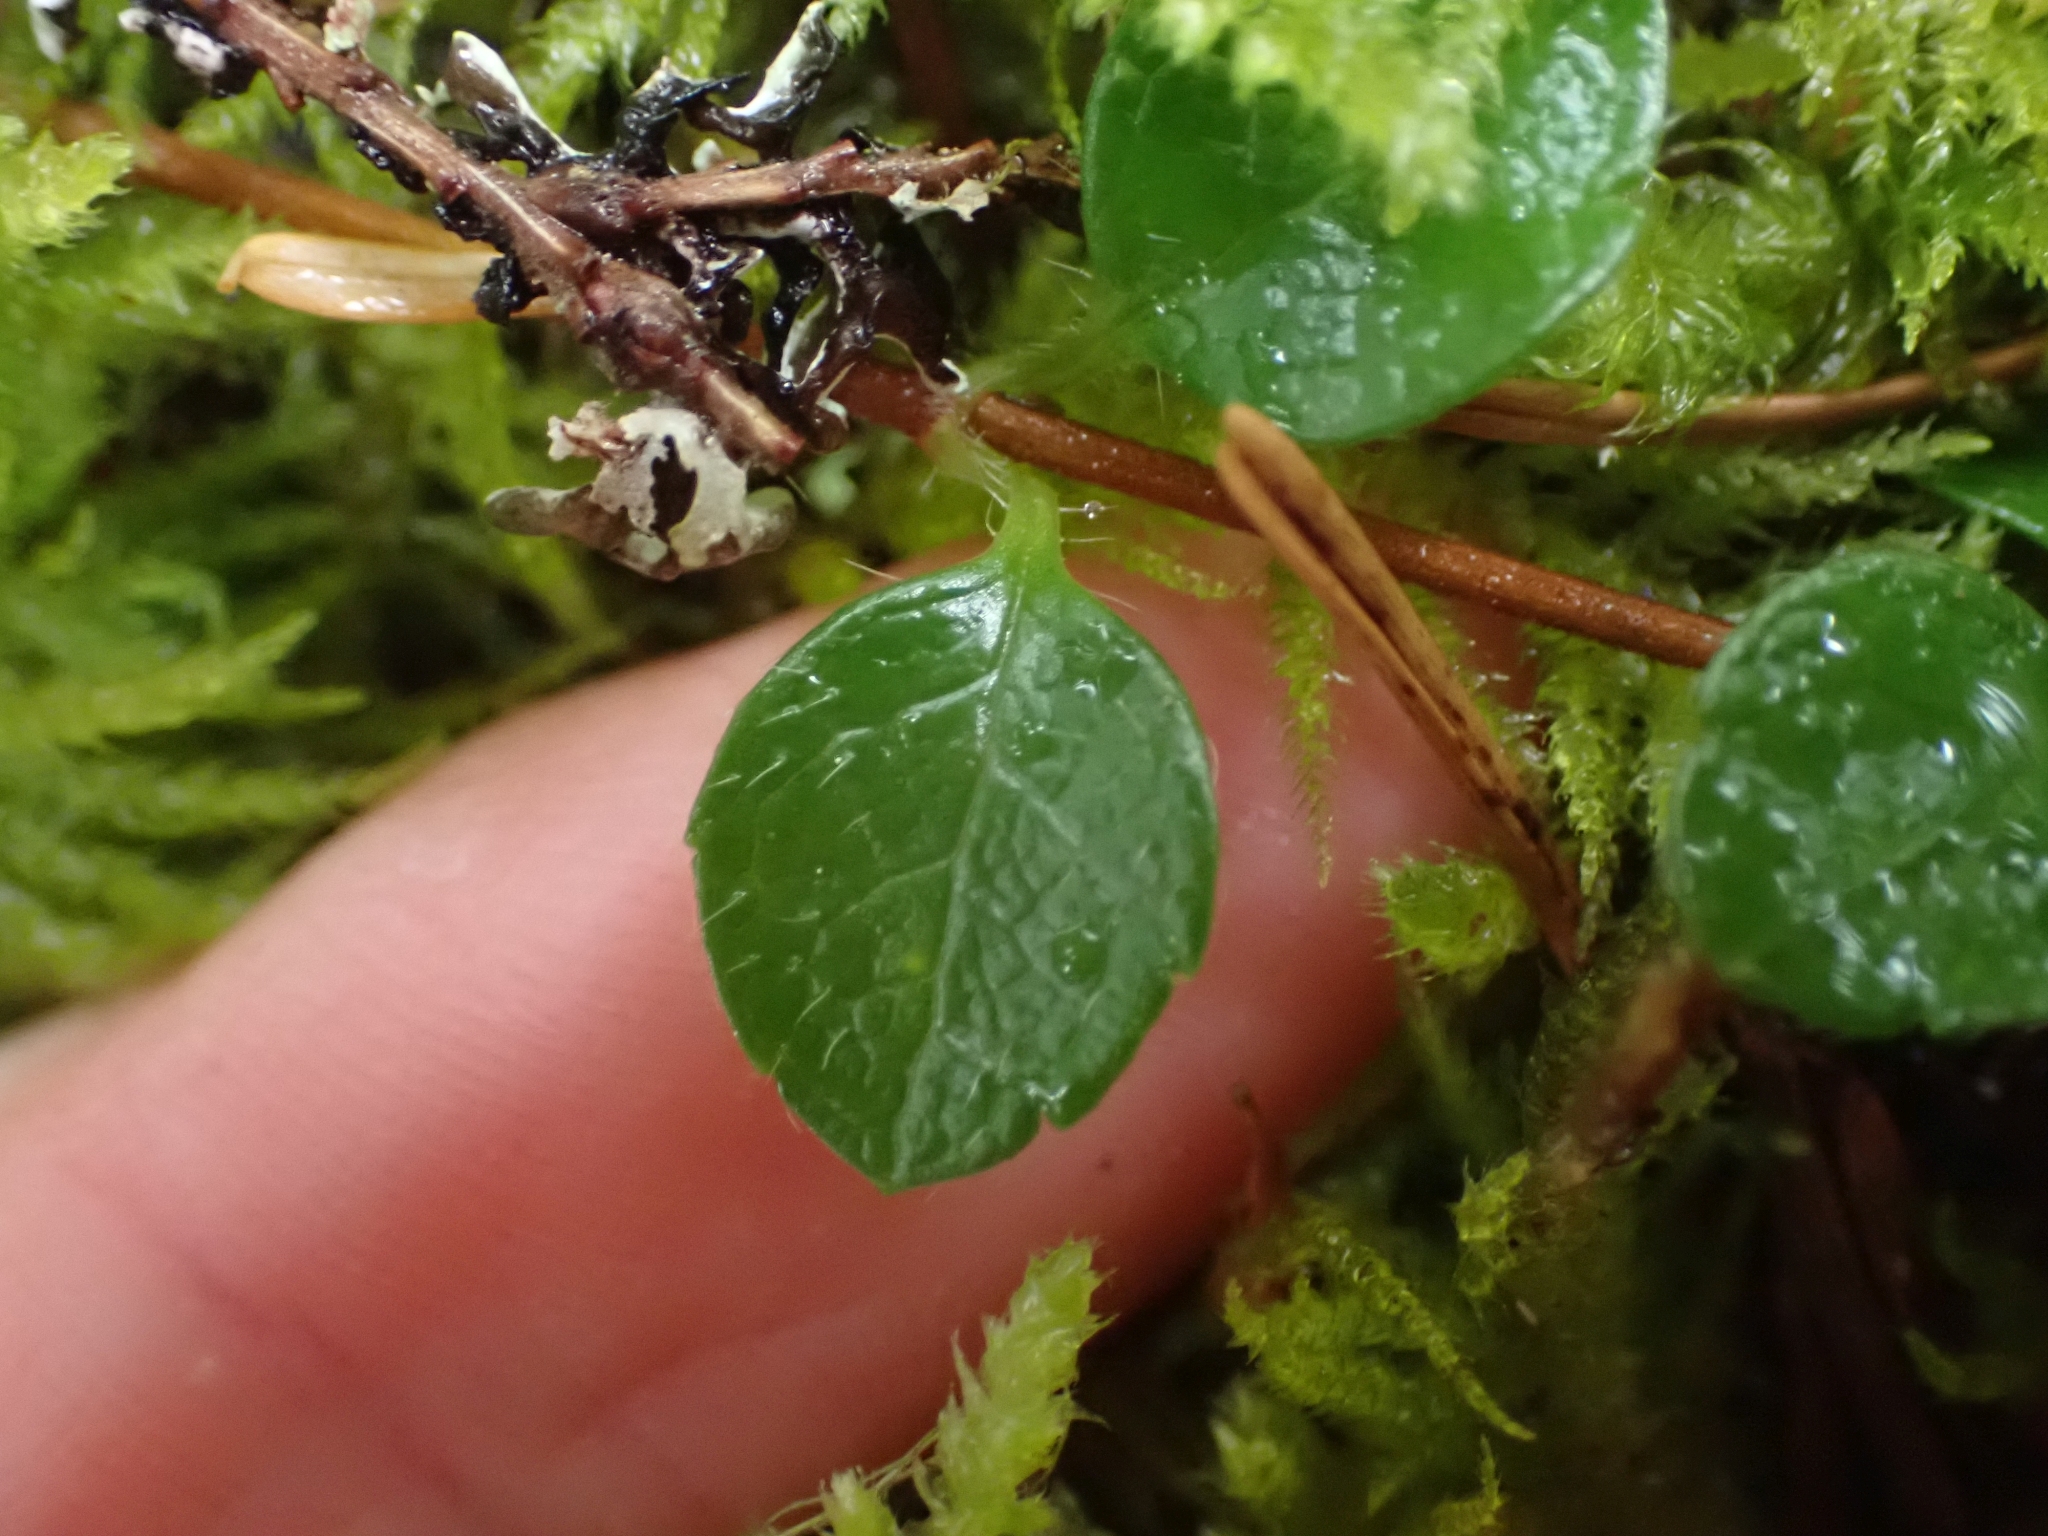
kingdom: Plantae
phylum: Tracheophyta
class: Magnoliopsida
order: Dipsacales
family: Caprifoliaceae
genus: Linnaea
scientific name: Linnaea borealis
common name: Twinflower
